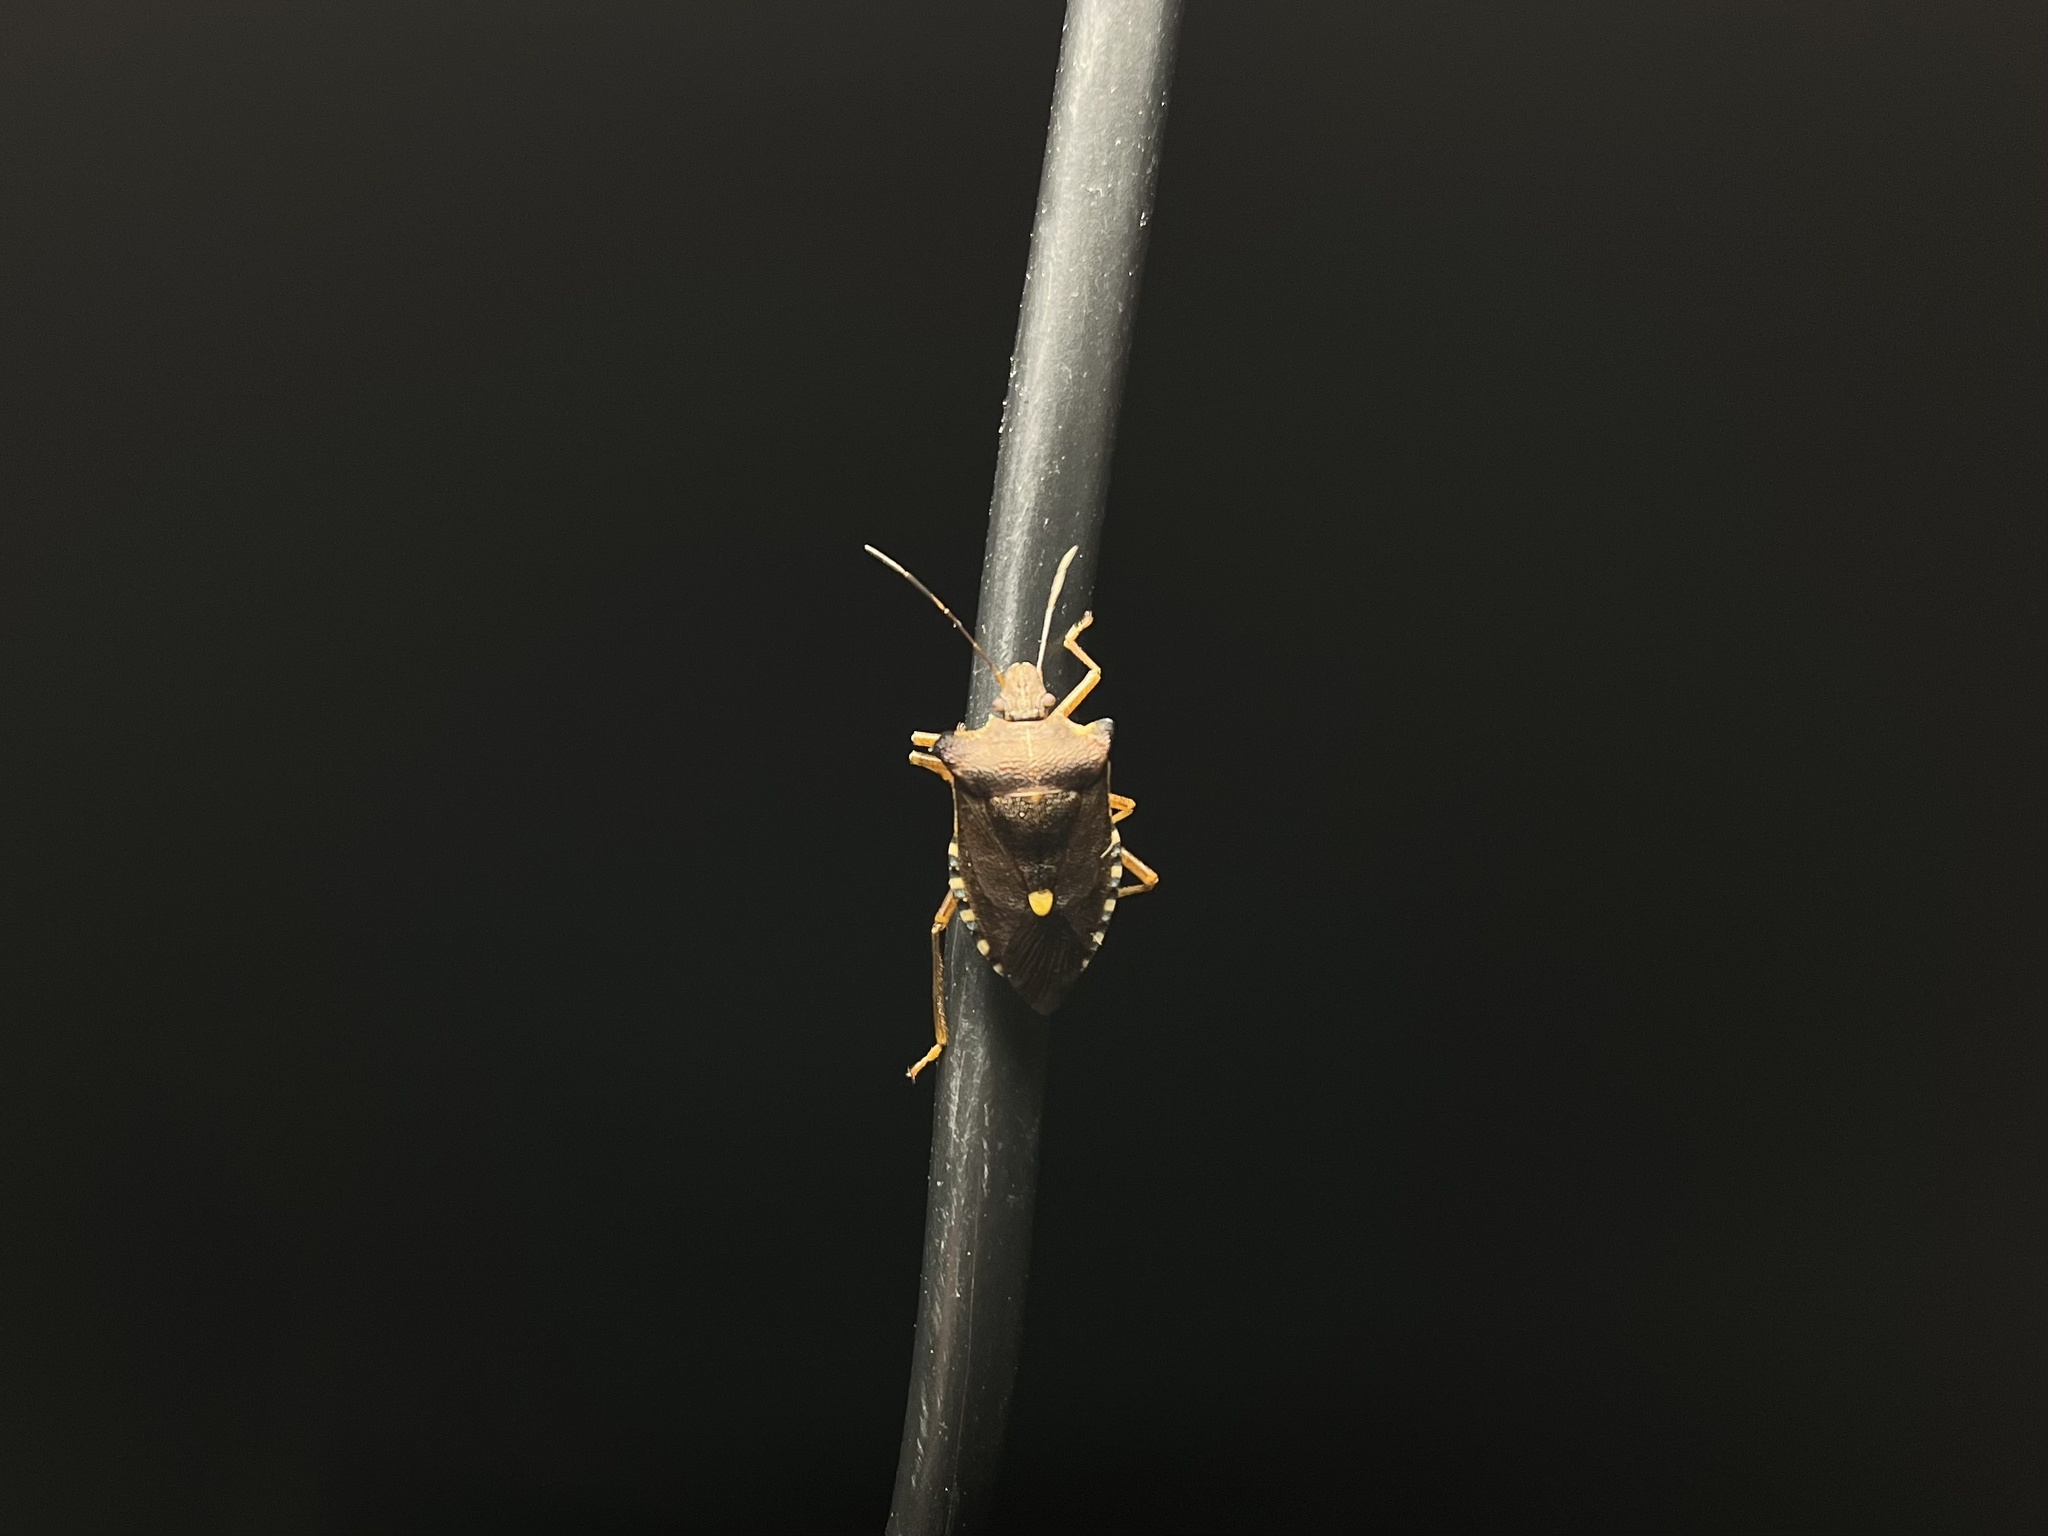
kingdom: Animalia
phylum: Arthropoda
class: Insecta
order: Hemiptera
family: Pentatomidae
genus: Pentatoma
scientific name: Pentatoma rufipes
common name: Forest bug
